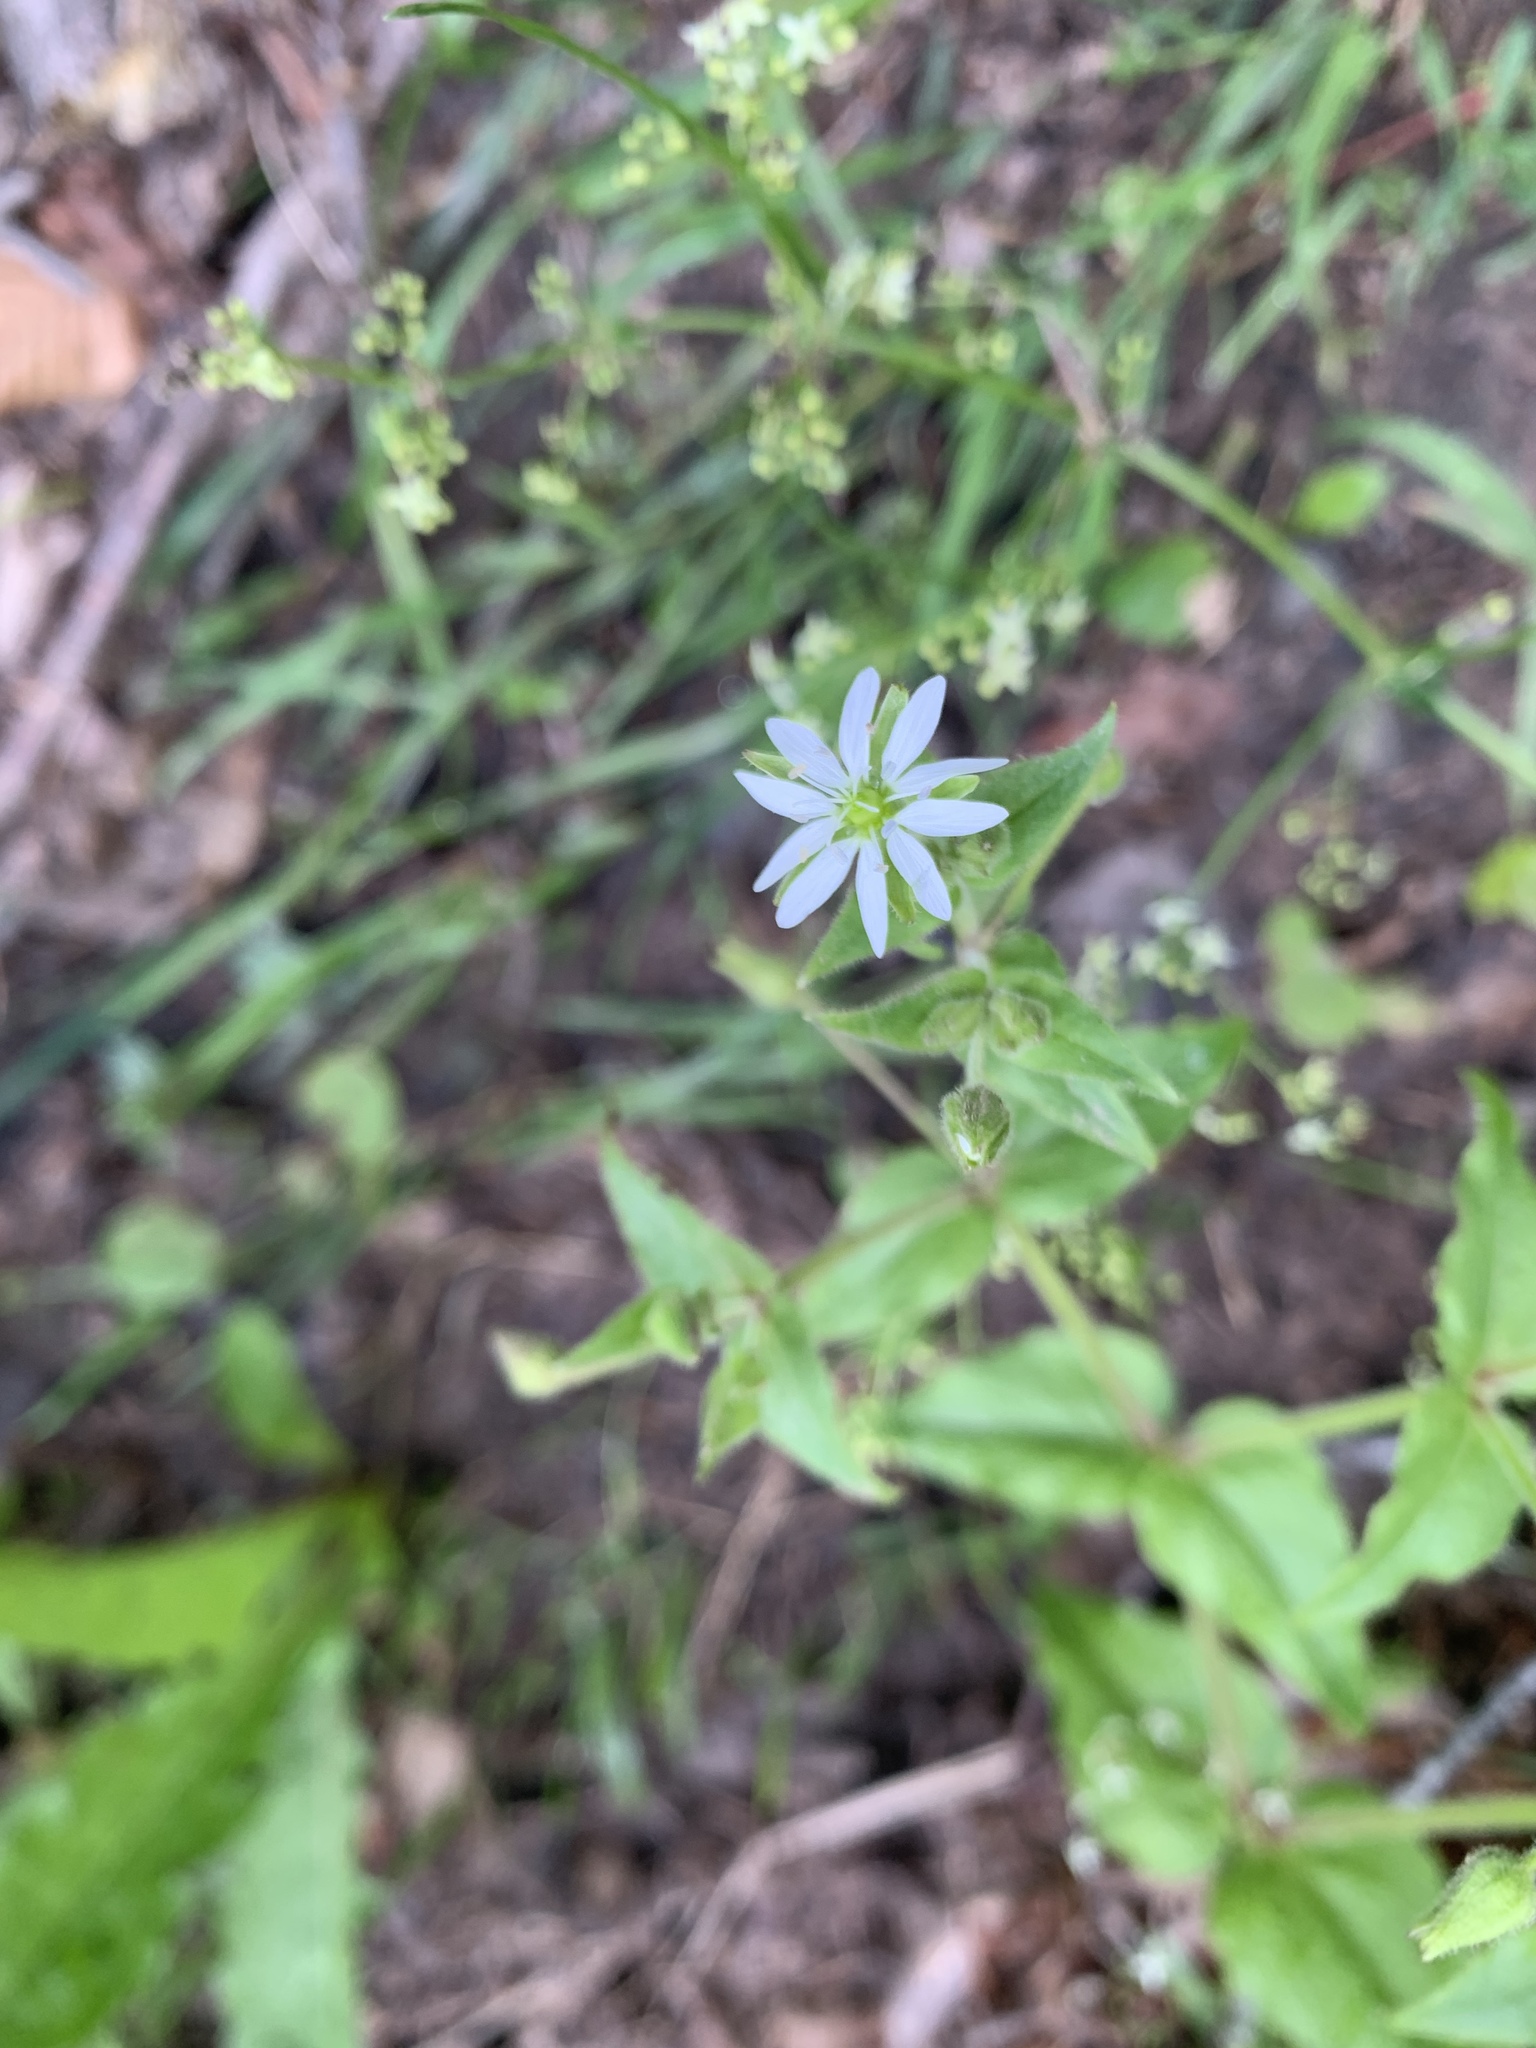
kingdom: Plantae
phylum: Tracheophyta
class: Magnoliopsida
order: Caryophyllales
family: Caryophyllaceae
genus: Stellaria
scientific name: Stellaria aquatica
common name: Water chickweed
